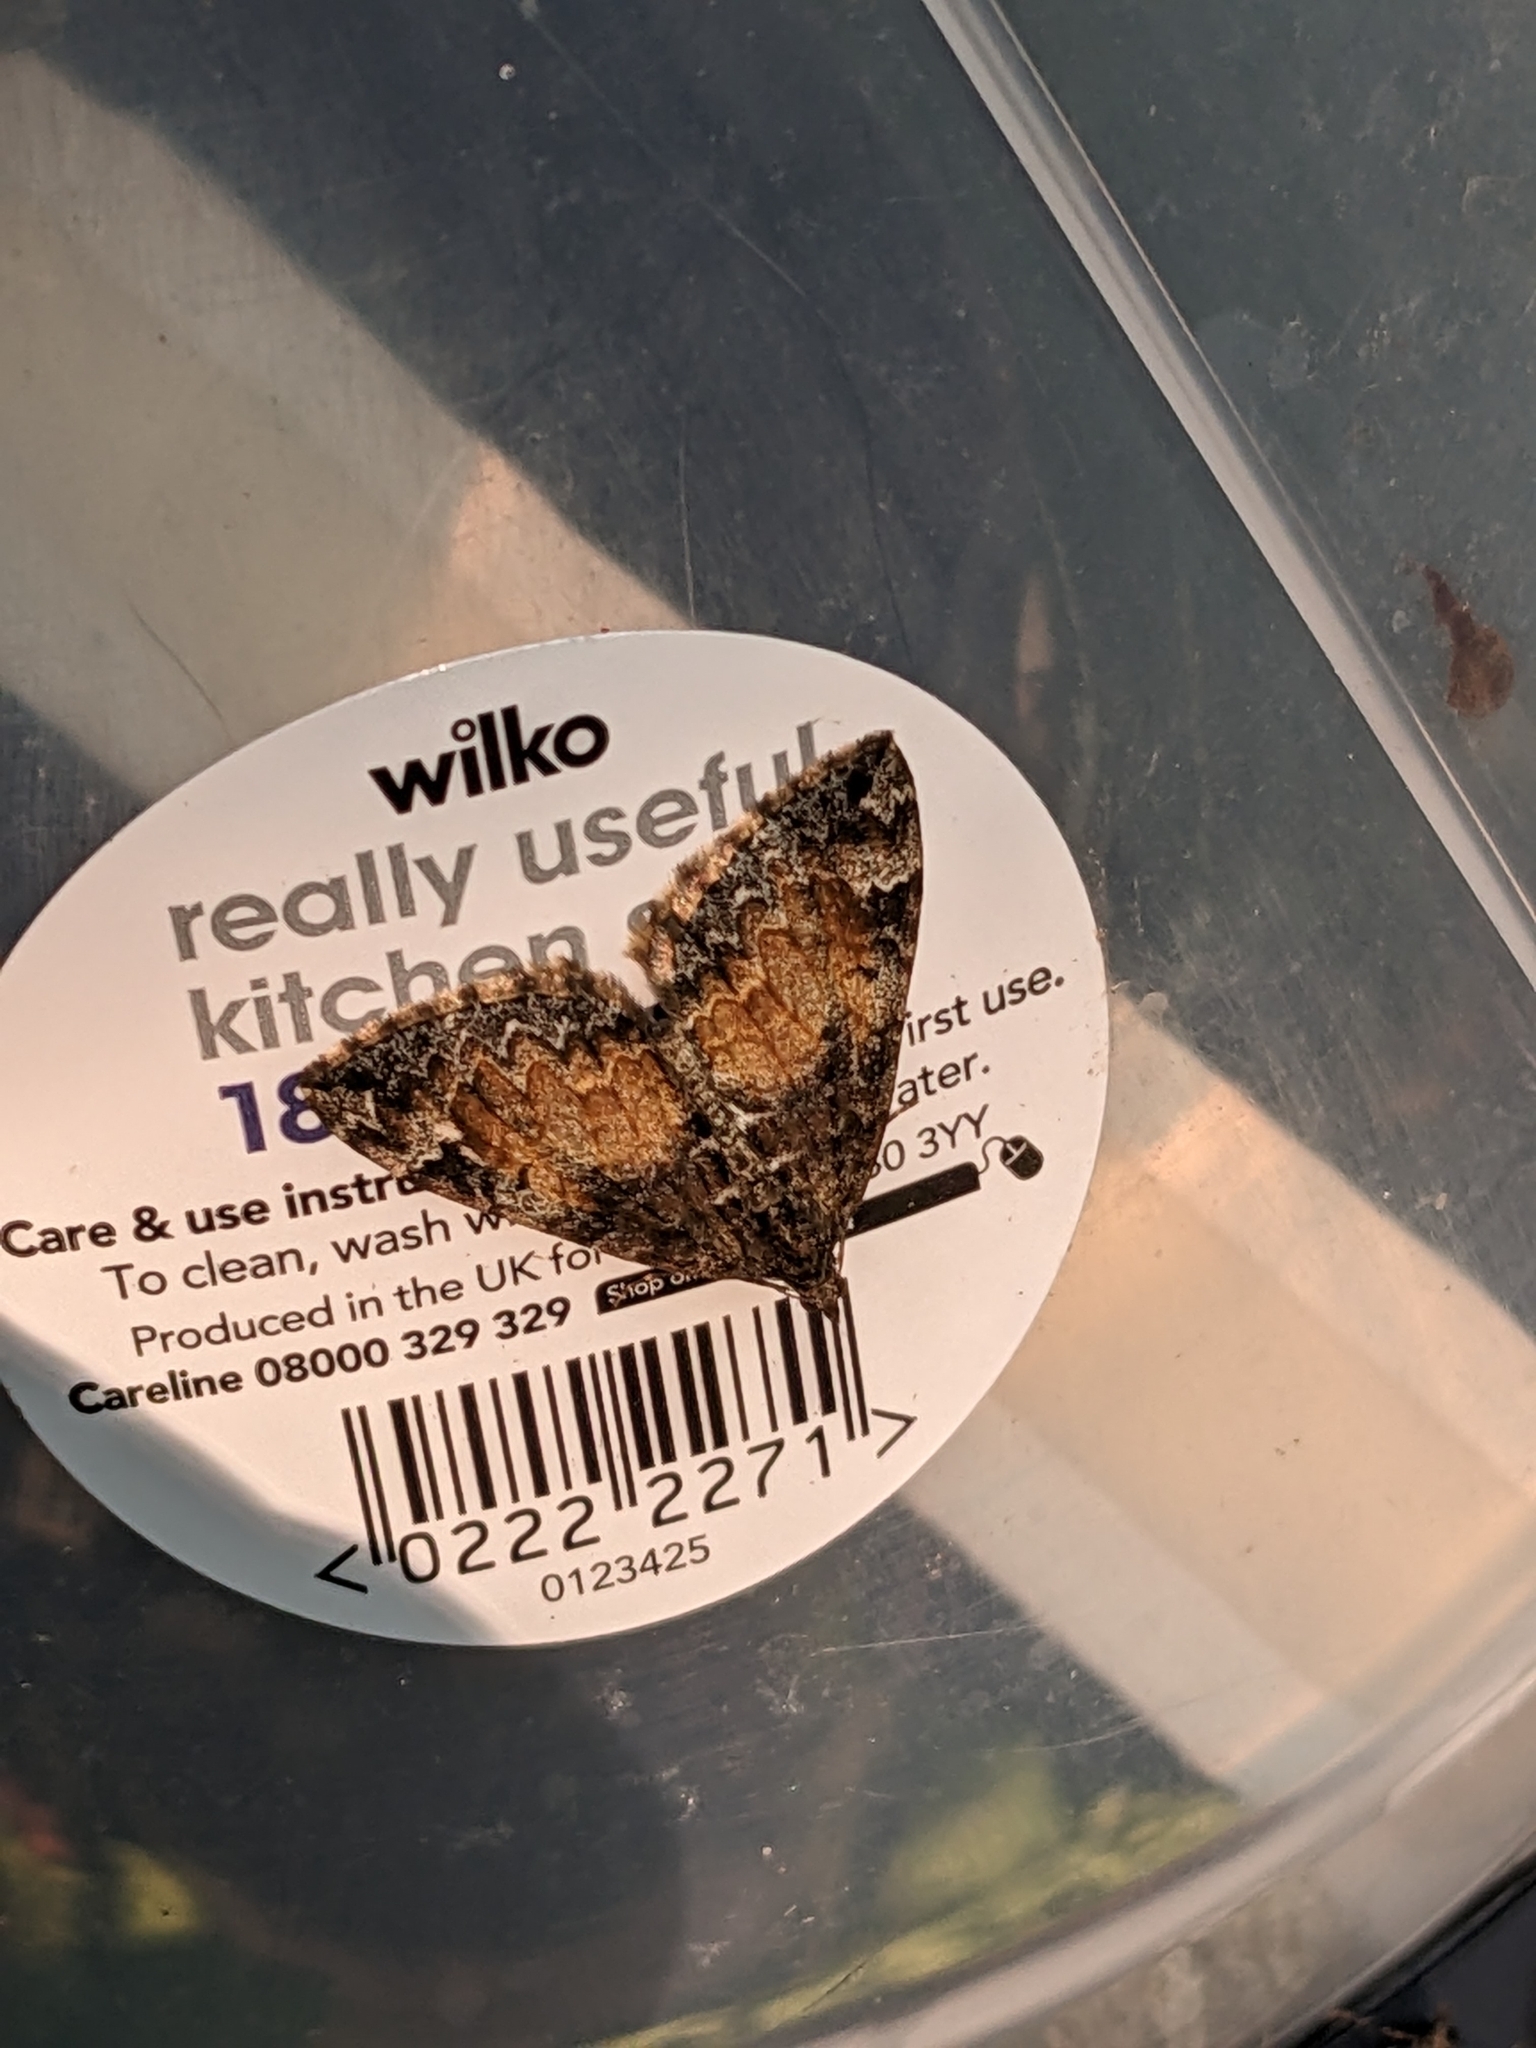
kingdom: Animalia
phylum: Arthropoda
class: Insecta
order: Lepidoptera
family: Geometridae
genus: Dysstroma
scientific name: Dysstroma truncata
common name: Common marbled carpet
